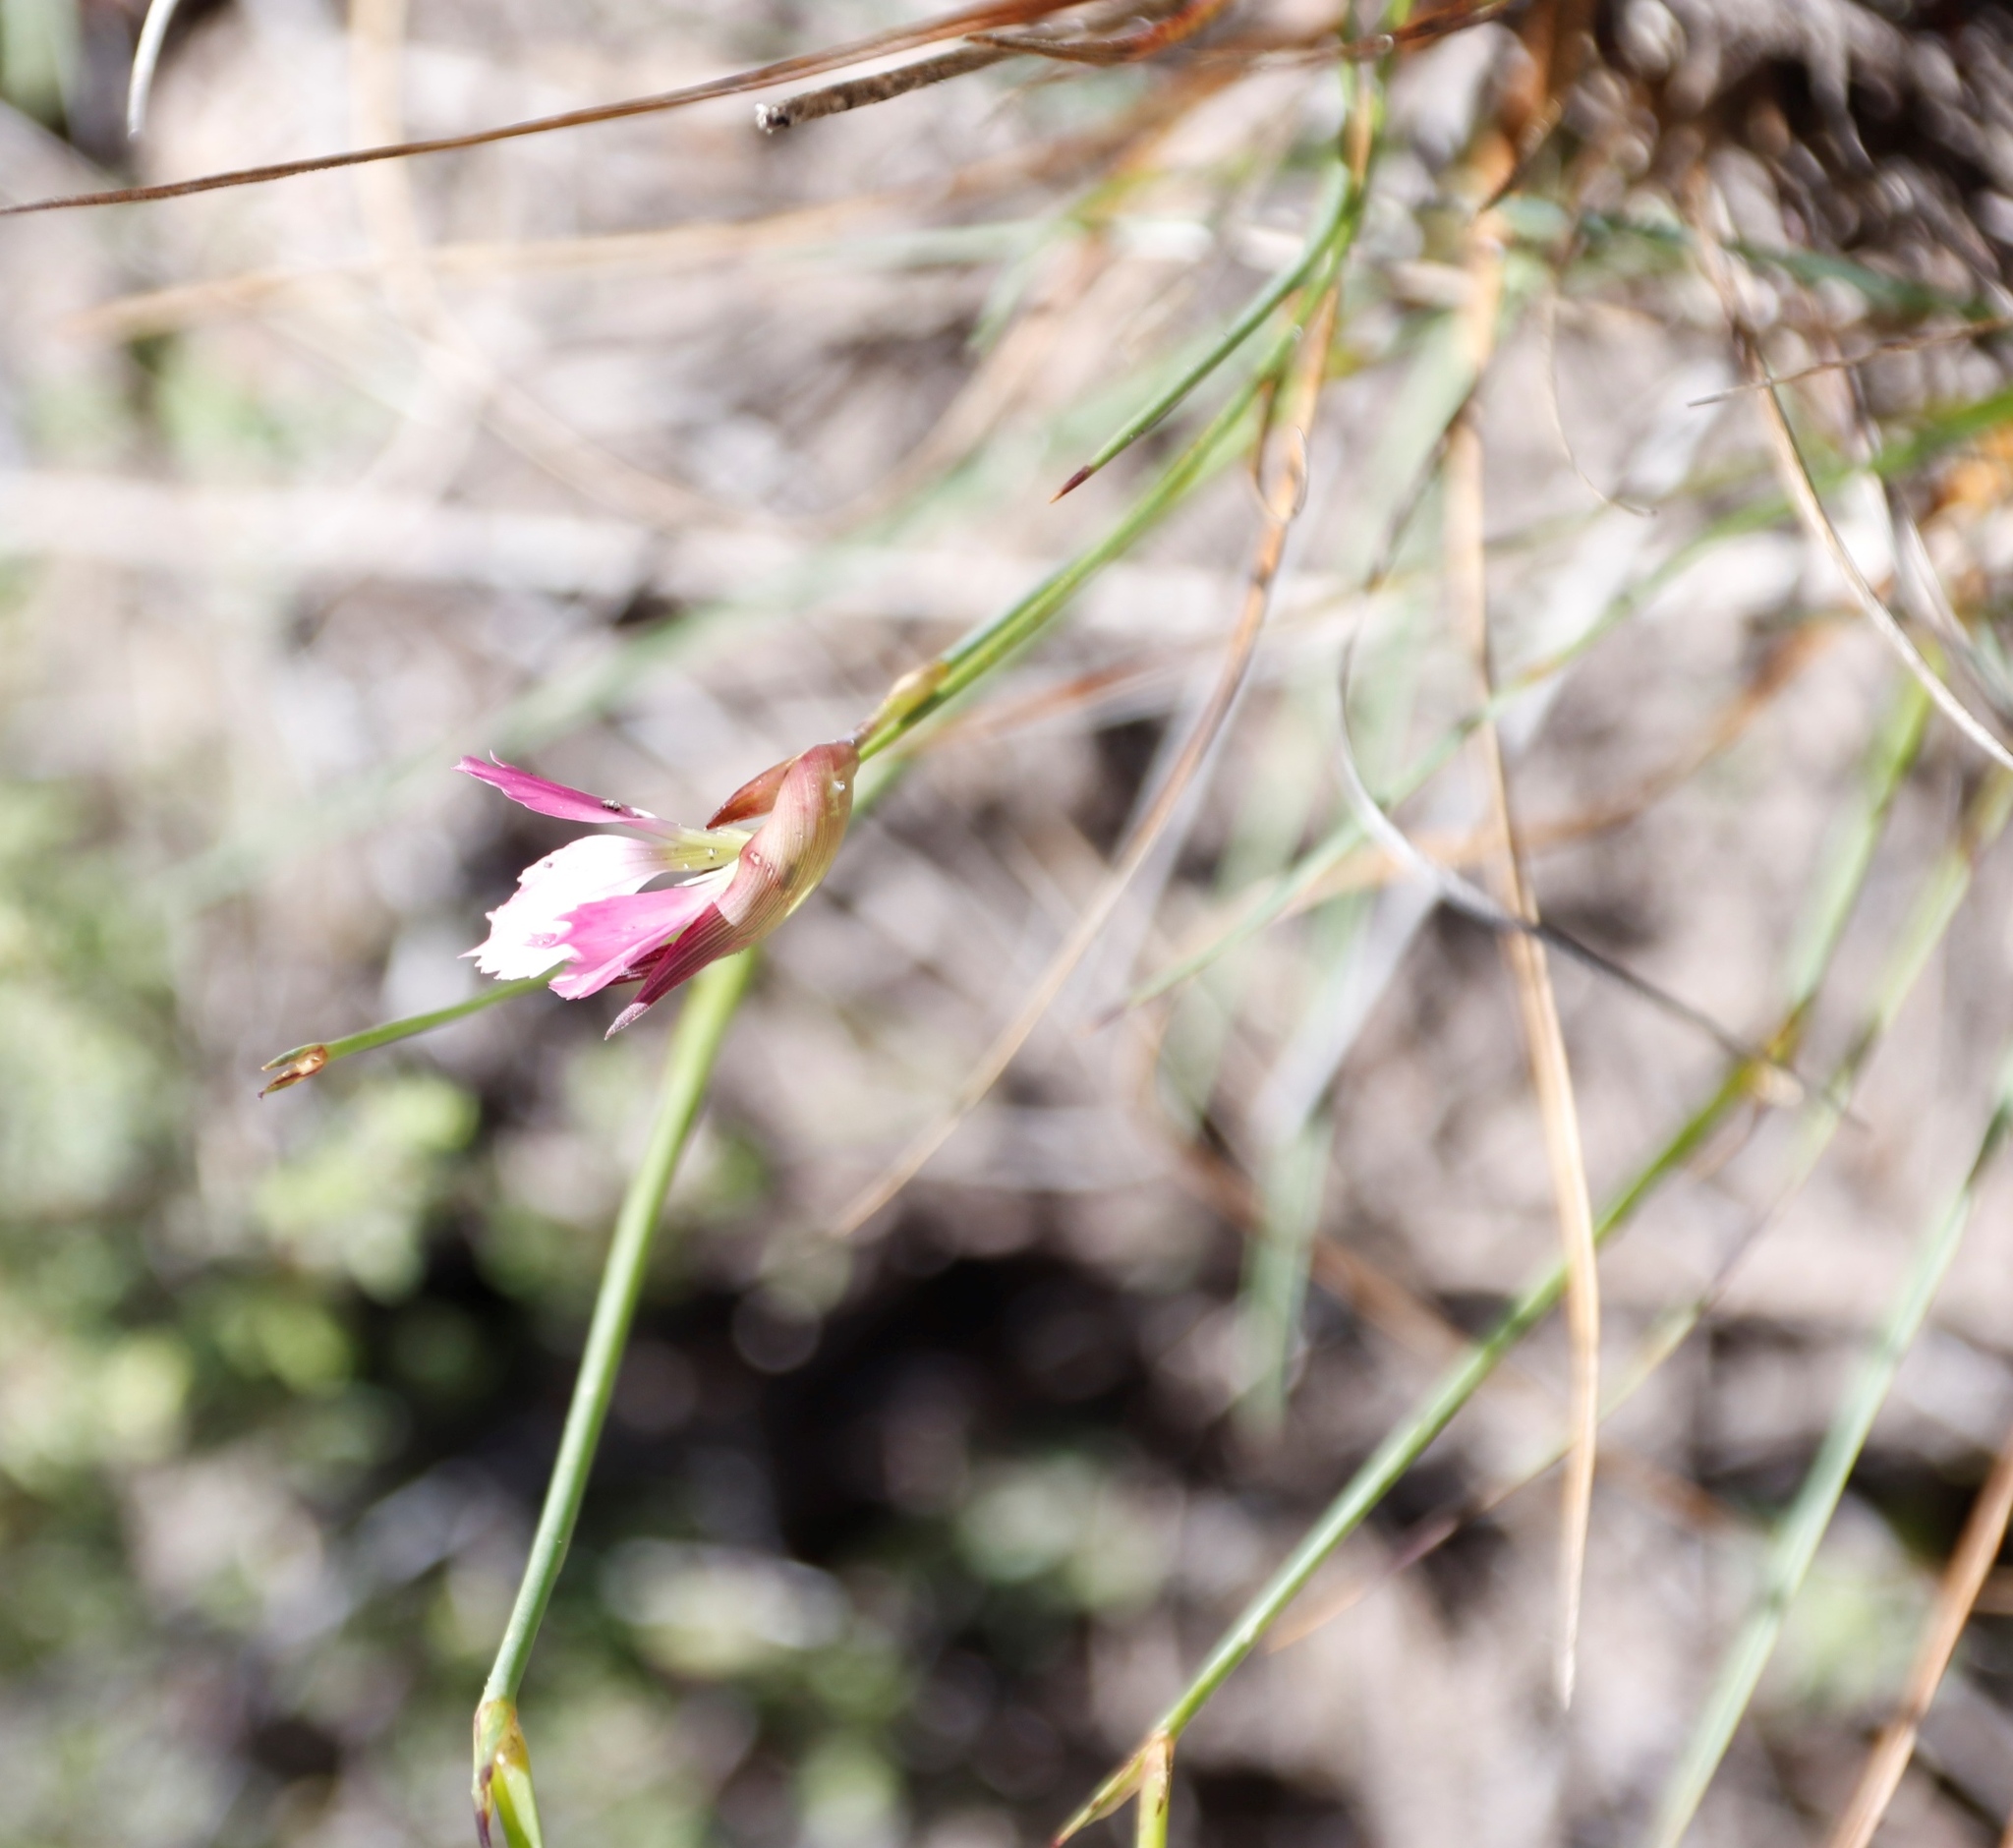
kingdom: Plantae
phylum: Tracheophyta
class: Magnoliopsida
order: Caryophyllales
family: Caryophyllaceae
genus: Dianthus
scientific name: Dianthus basuticus
